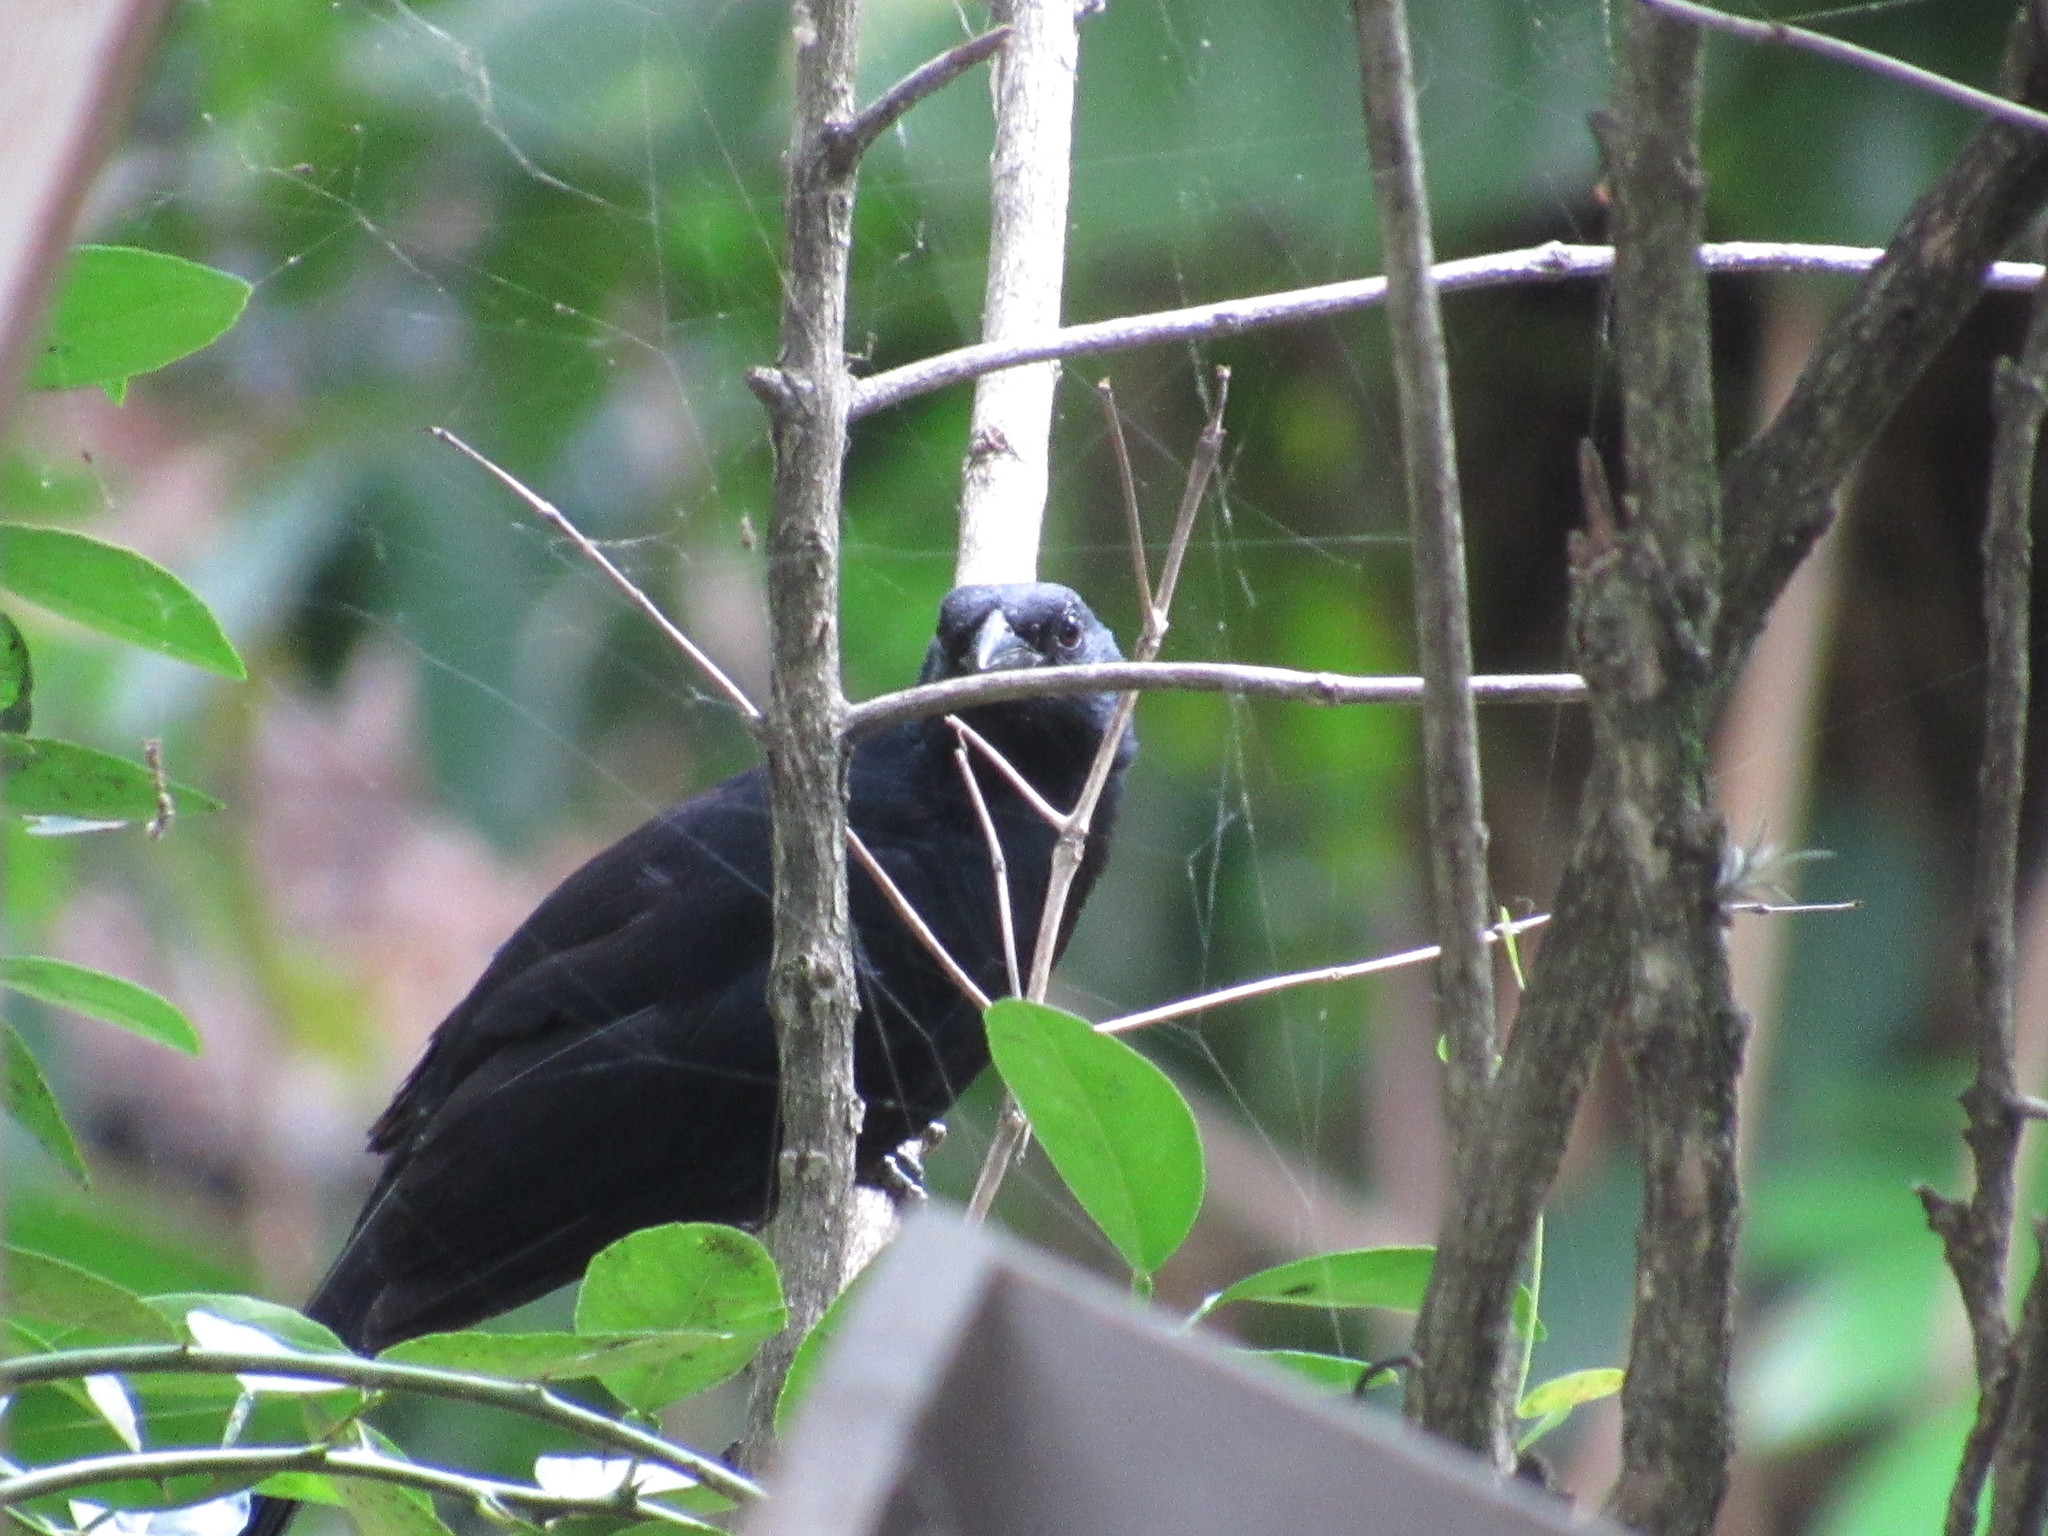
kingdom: Animalia
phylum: Chordata
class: Aves
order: Passeriformes
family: Icteridae
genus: Dives
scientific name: Dives dives
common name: Melodious blackbird
